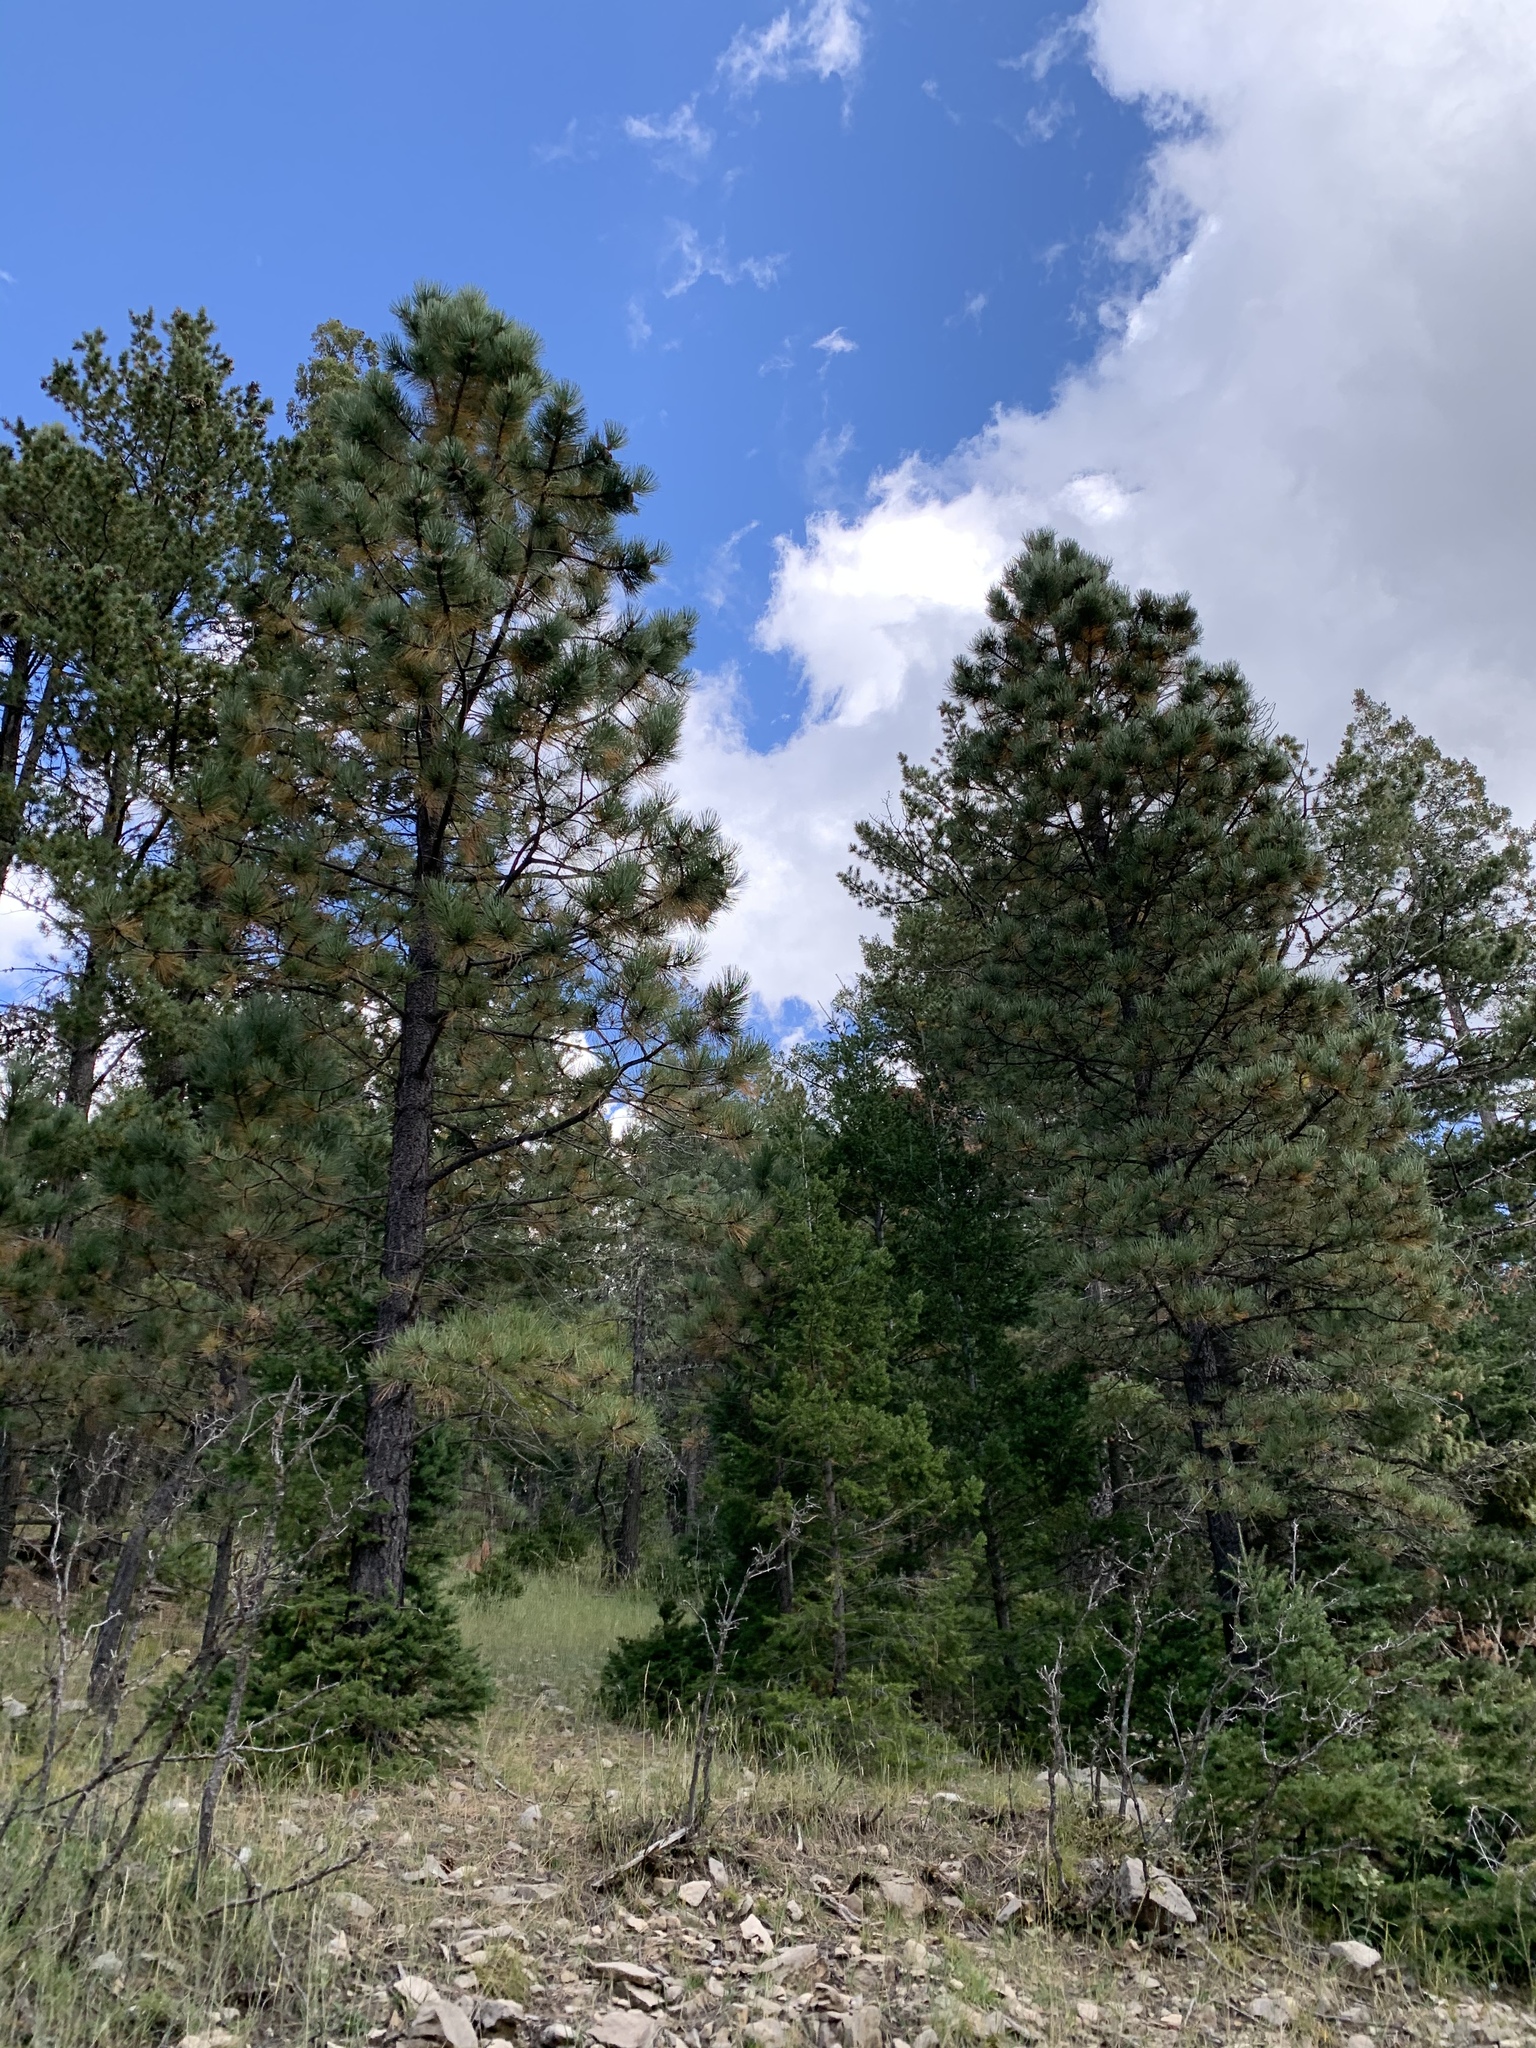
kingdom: Plantae
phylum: Tracheophyta
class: Pinopsida
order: Pinales
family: Pinaceae
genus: Pinus
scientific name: Pinus ponderosa
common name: Western yellow-pine
